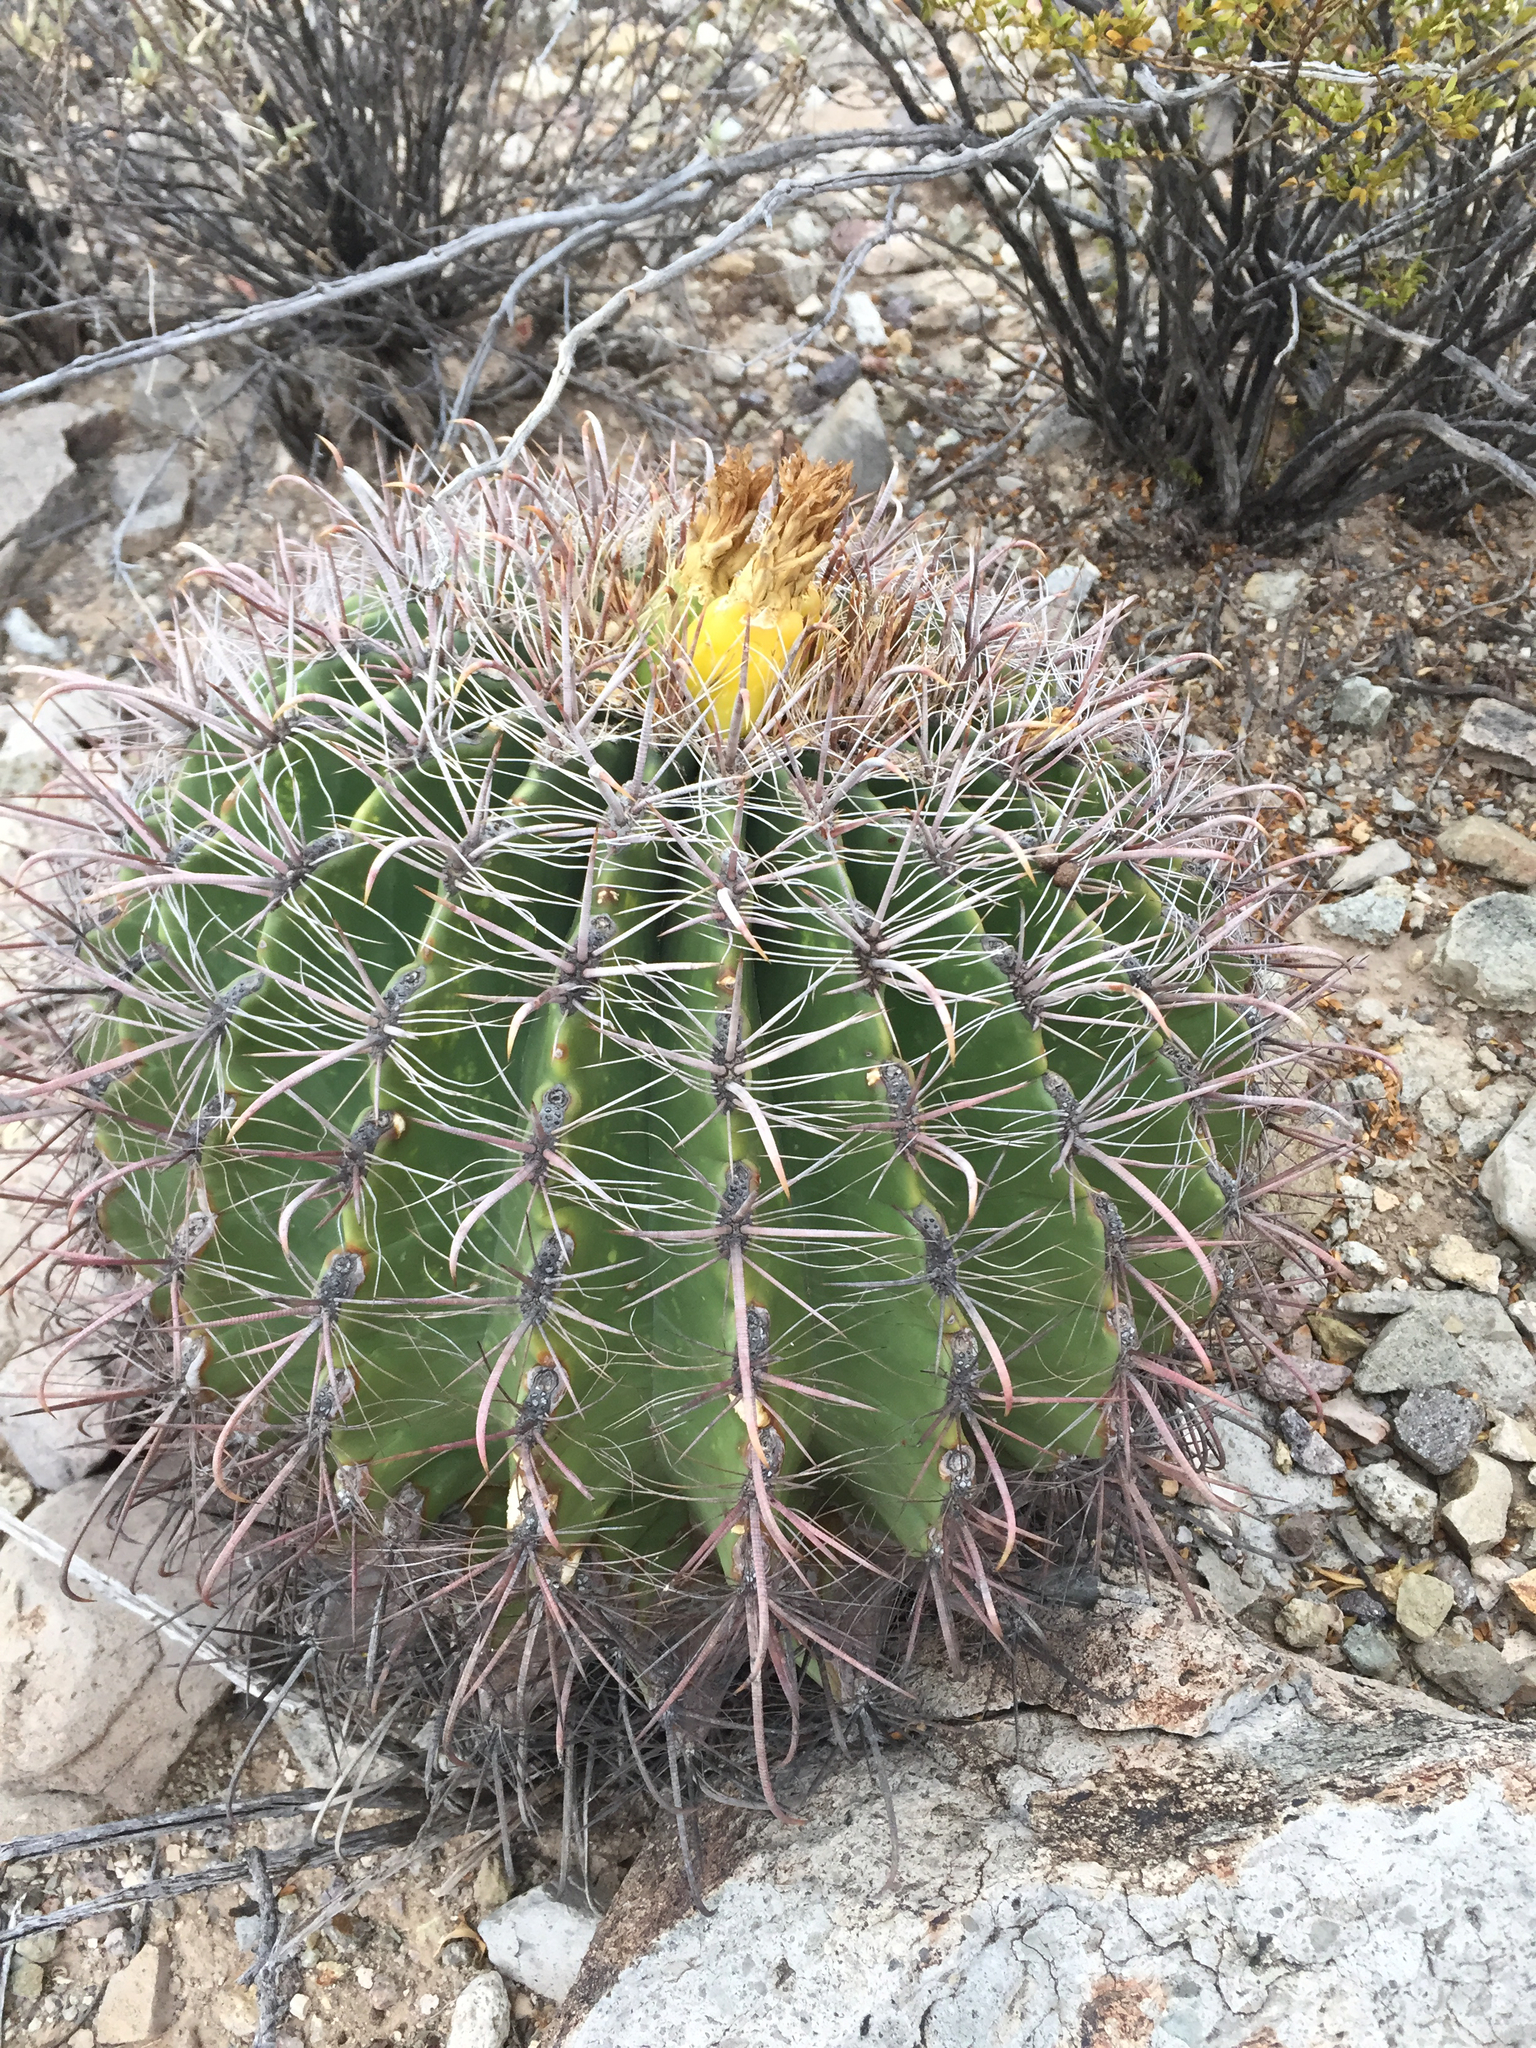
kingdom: Plantae
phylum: Tracheophyta
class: Magnoliopsida
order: Caryophyllales
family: Cactaceae
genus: Ferocactus
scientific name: Ferocactus wislizeni
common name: Candy barrel cactus
